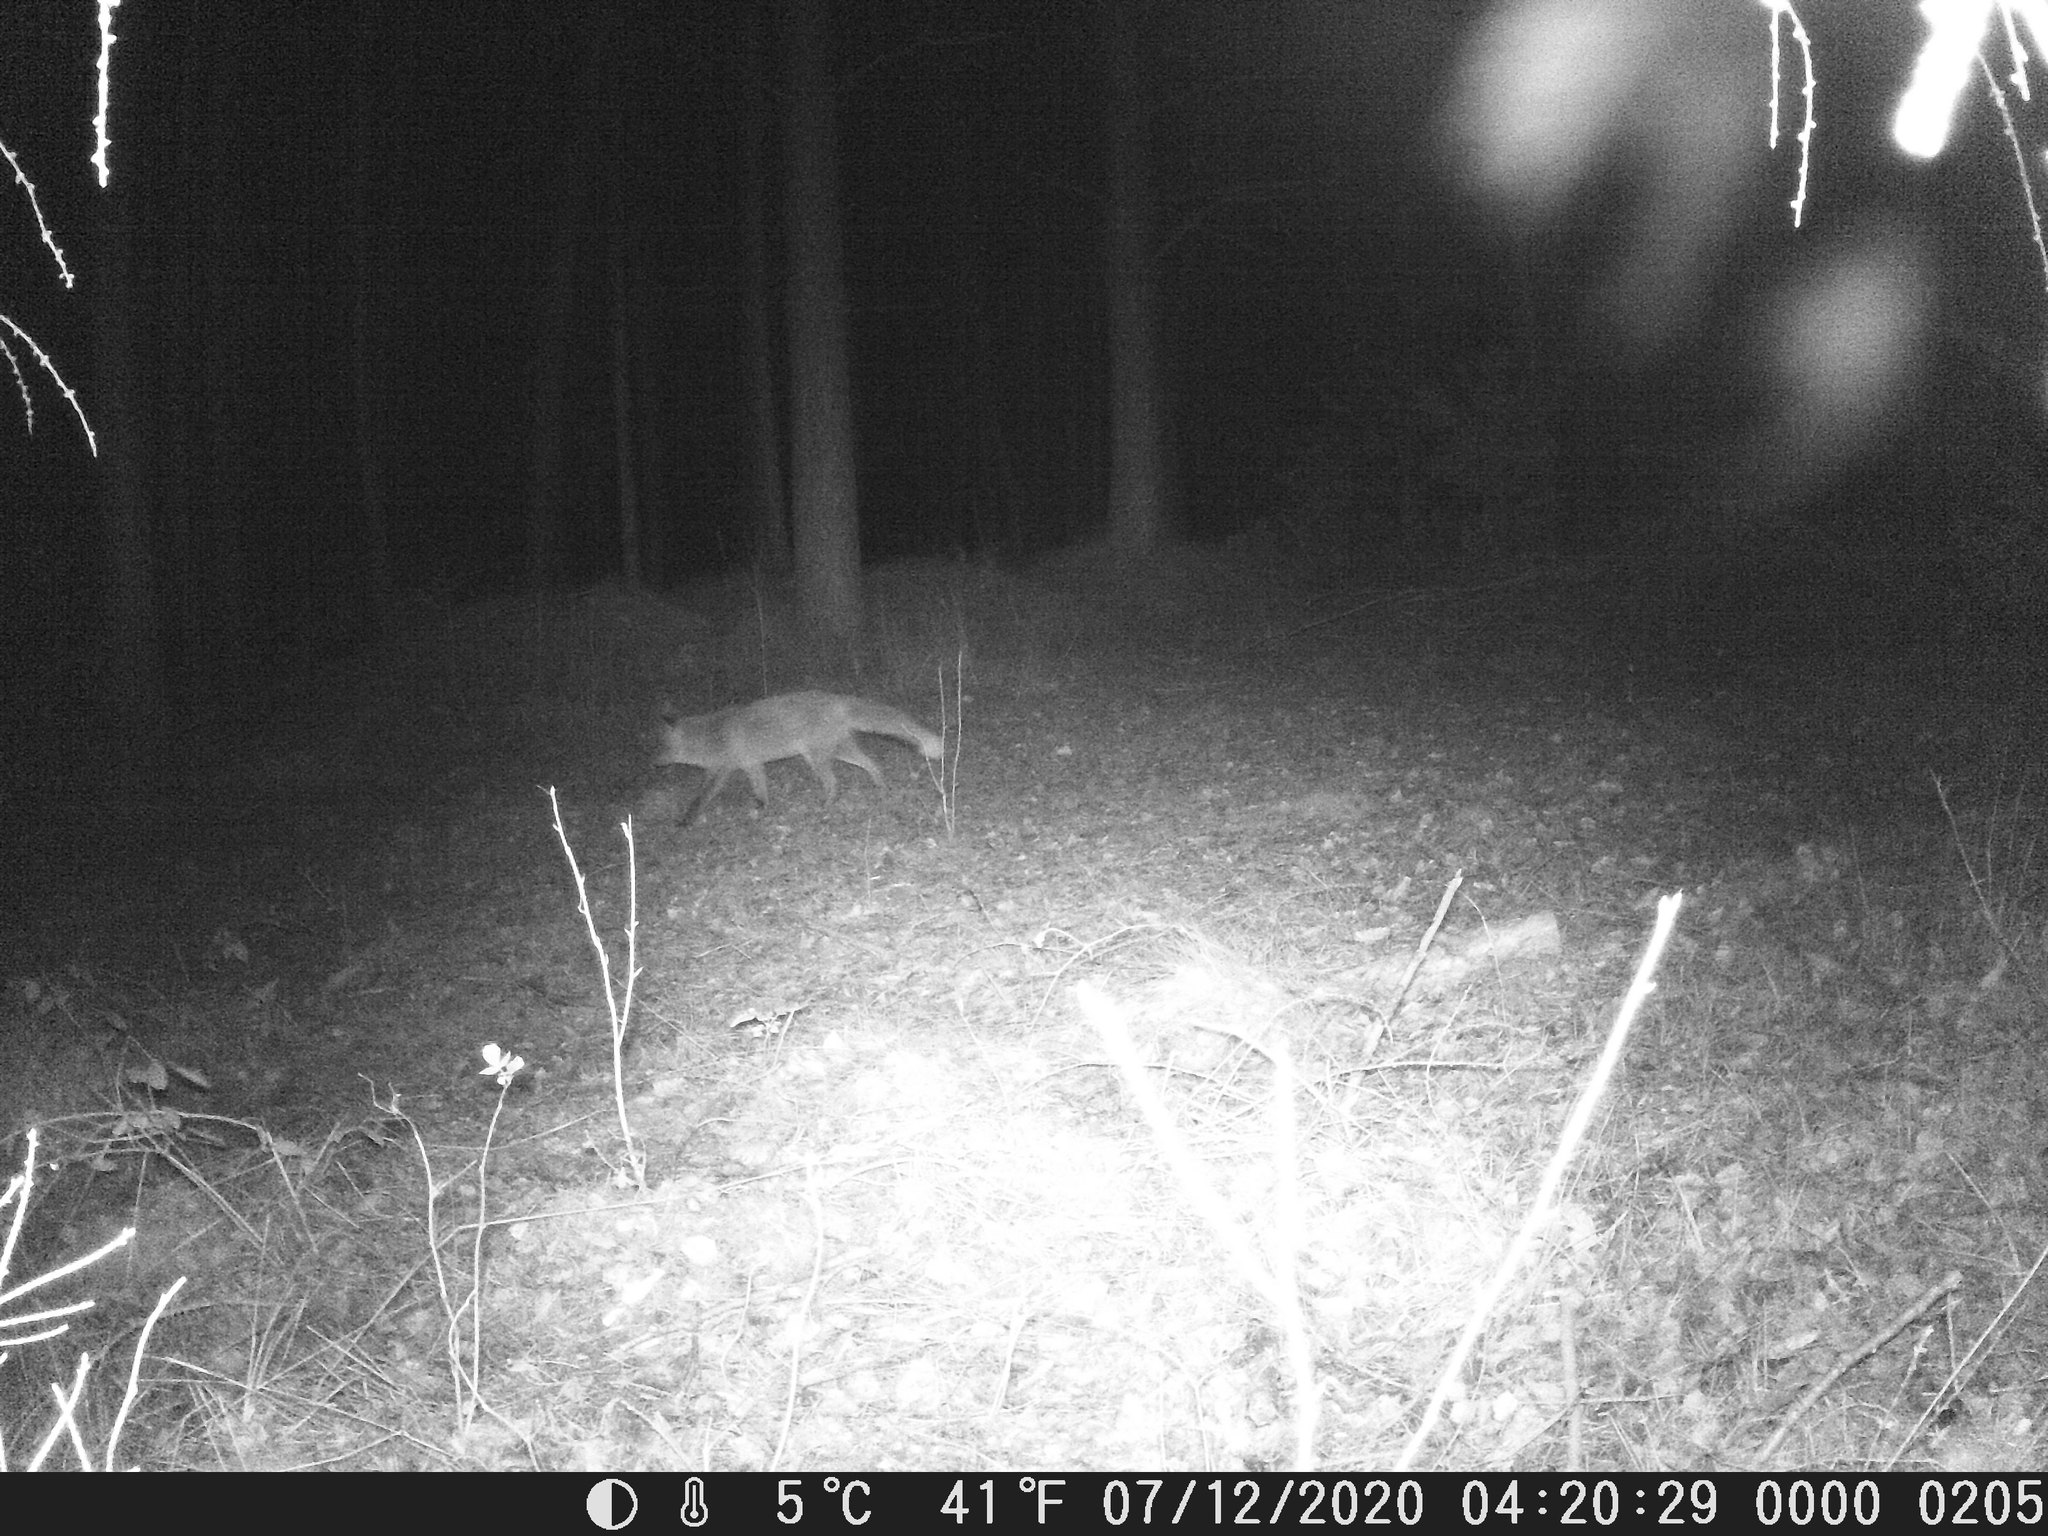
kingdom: Animalia
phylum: Chordata
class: Mammalia
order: Carnivora
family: Canidae
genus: Vulpes
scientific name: Vulpes vulpes
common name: Red fox
